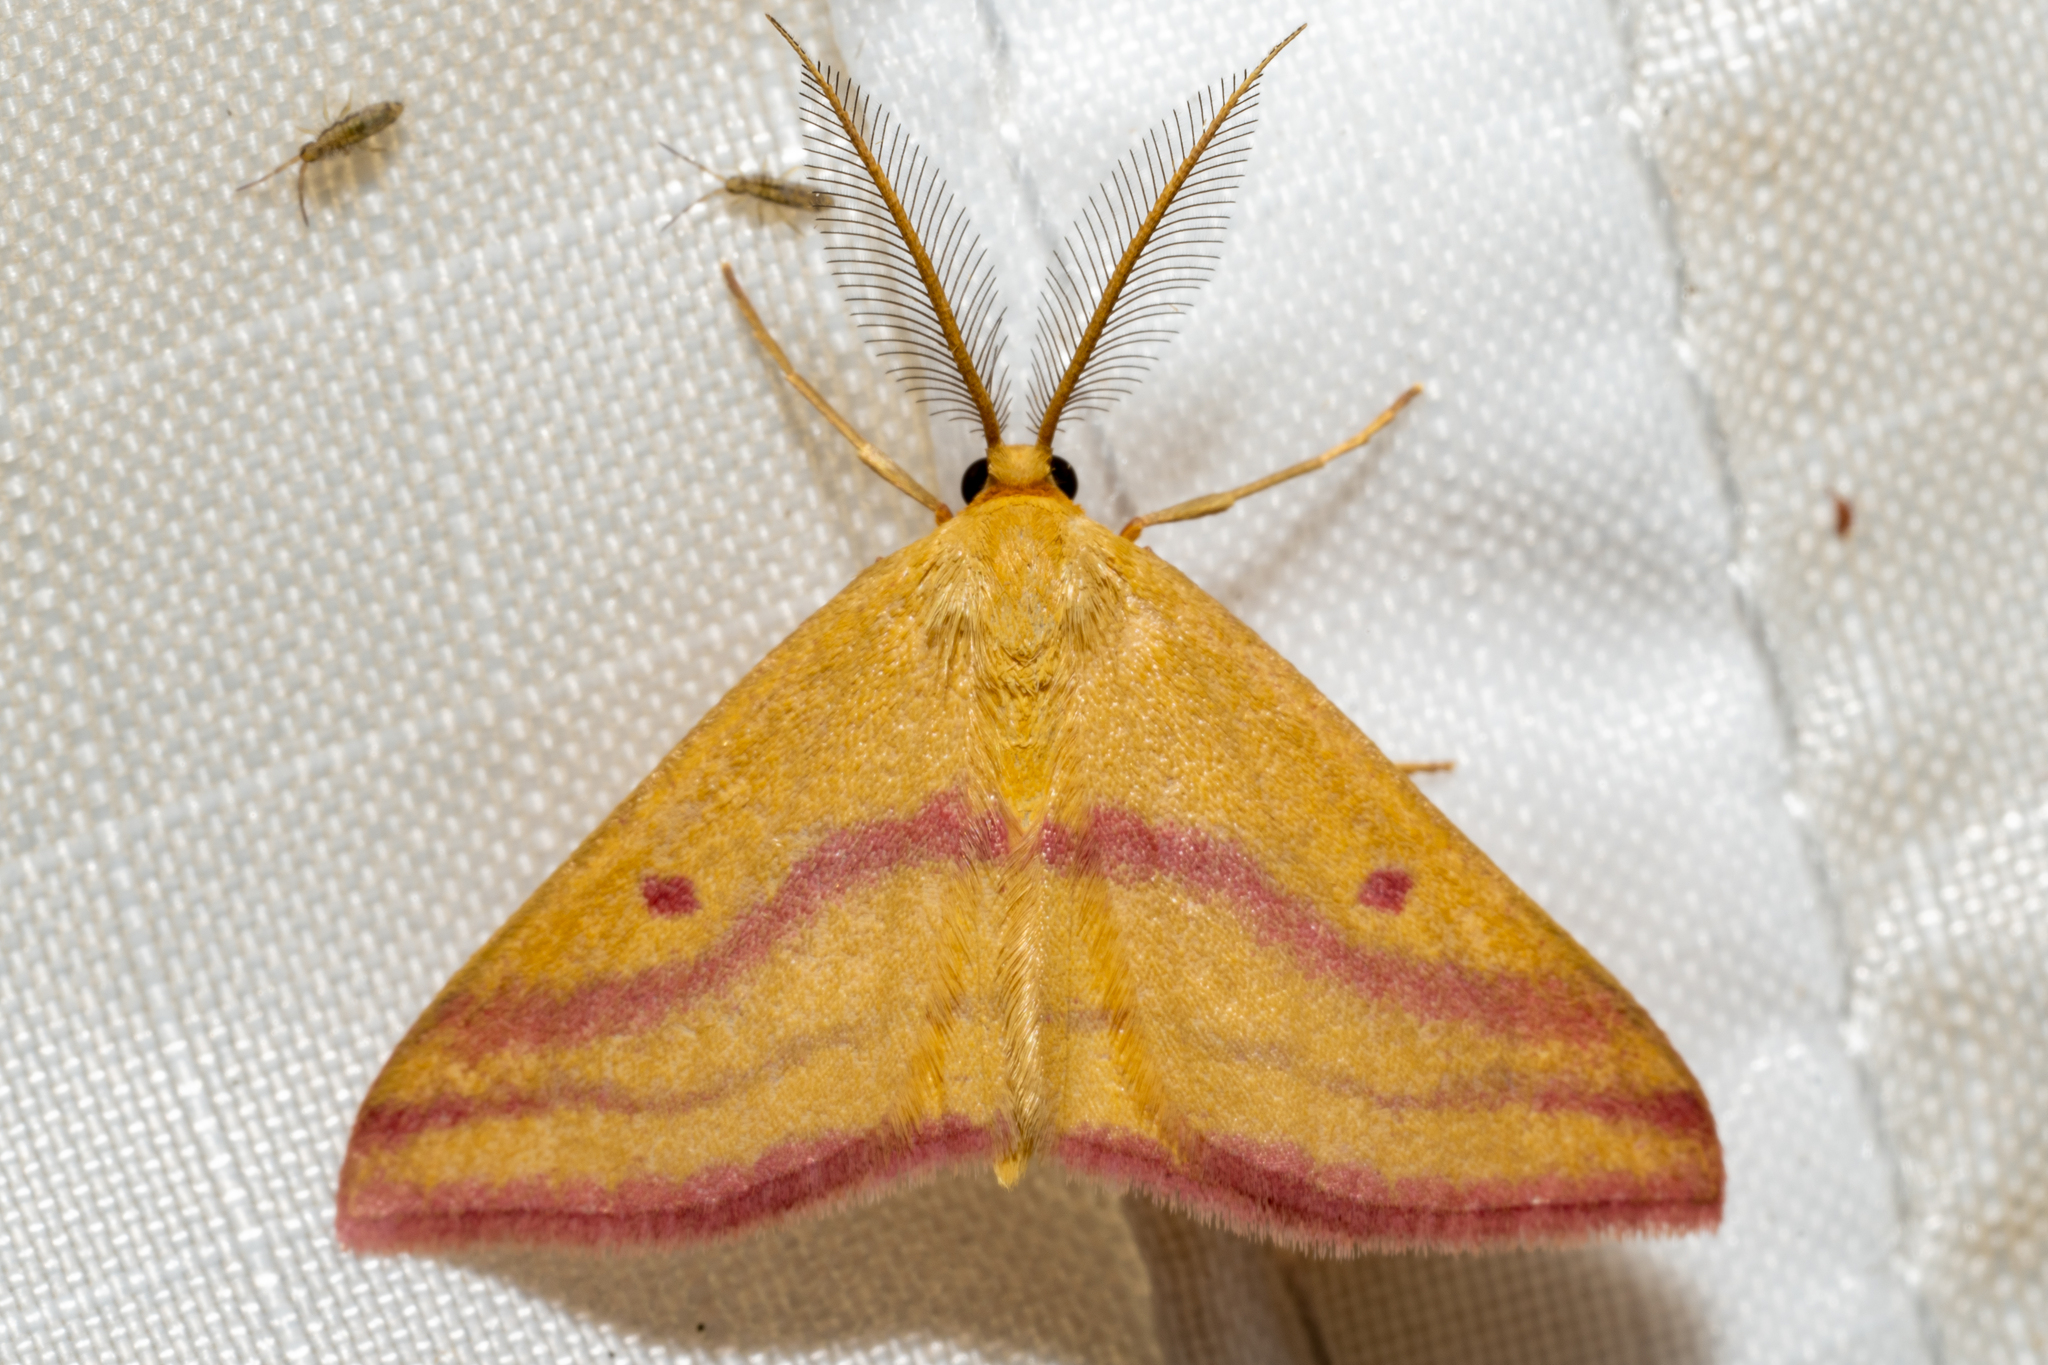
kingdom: Animalia
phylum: Arthropoda
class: Insecta
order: Lepidoptera
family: Geometridae
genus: Haematopis
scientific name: Haematopis grataria
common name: Chickweed geometer
